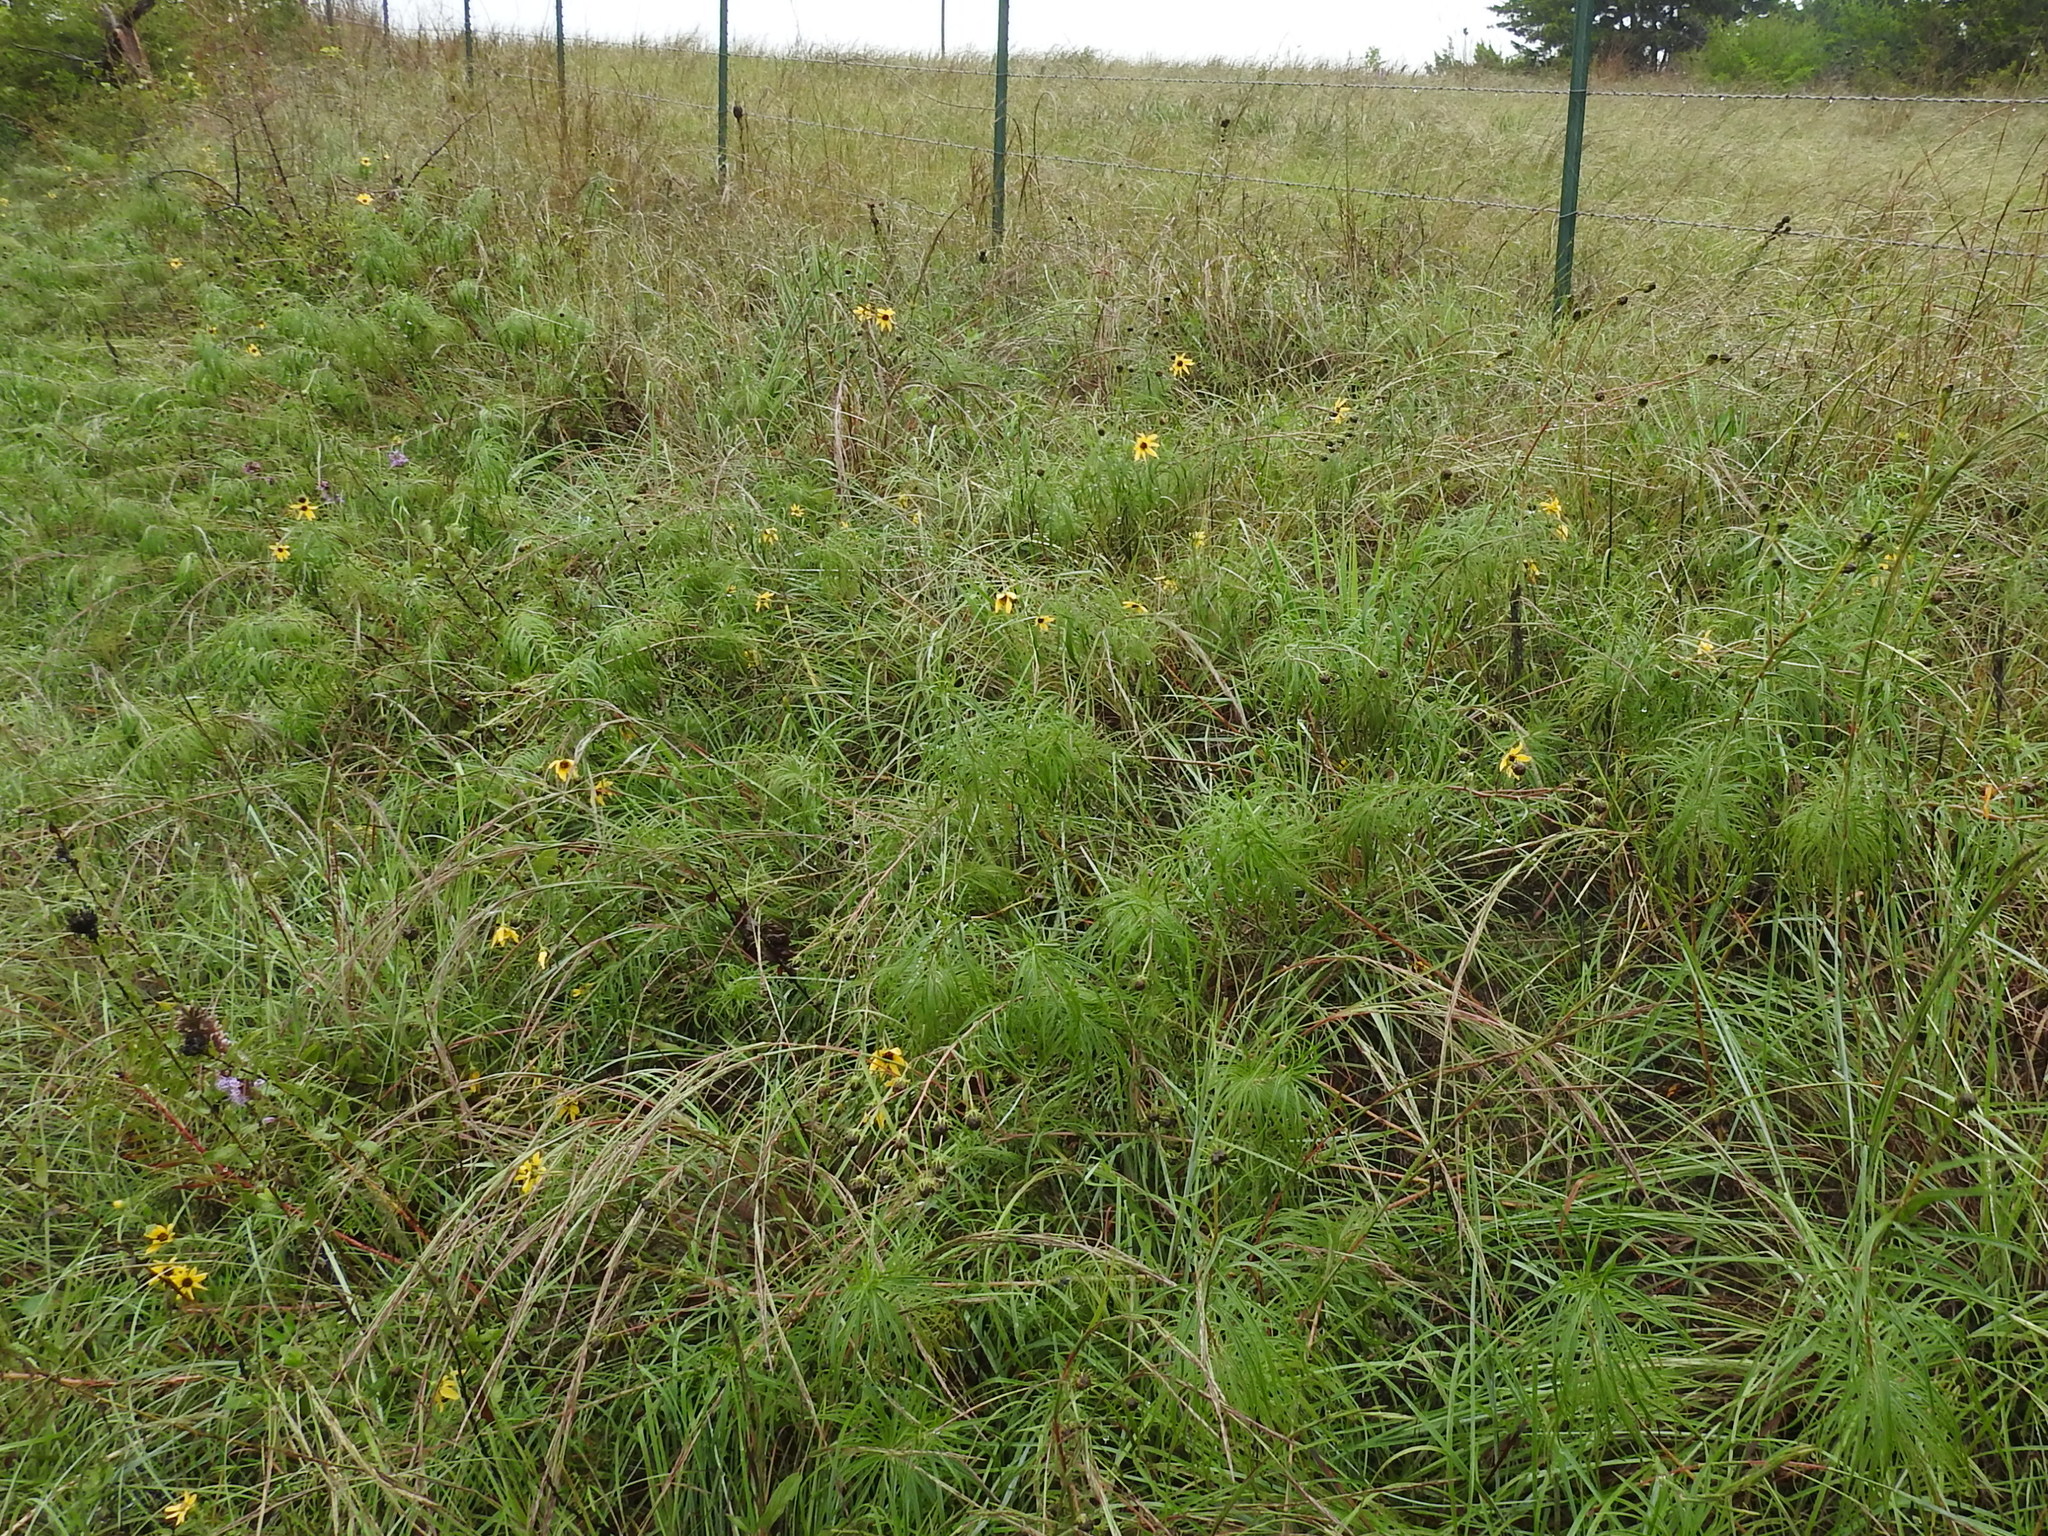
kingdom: Plantae
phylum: Tracheophyta
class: Magnoliopsida
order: Asterales
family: Asteraceae
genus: Helianthus
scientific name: Helianthus salicifolius
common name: Willowleaf sunflower
